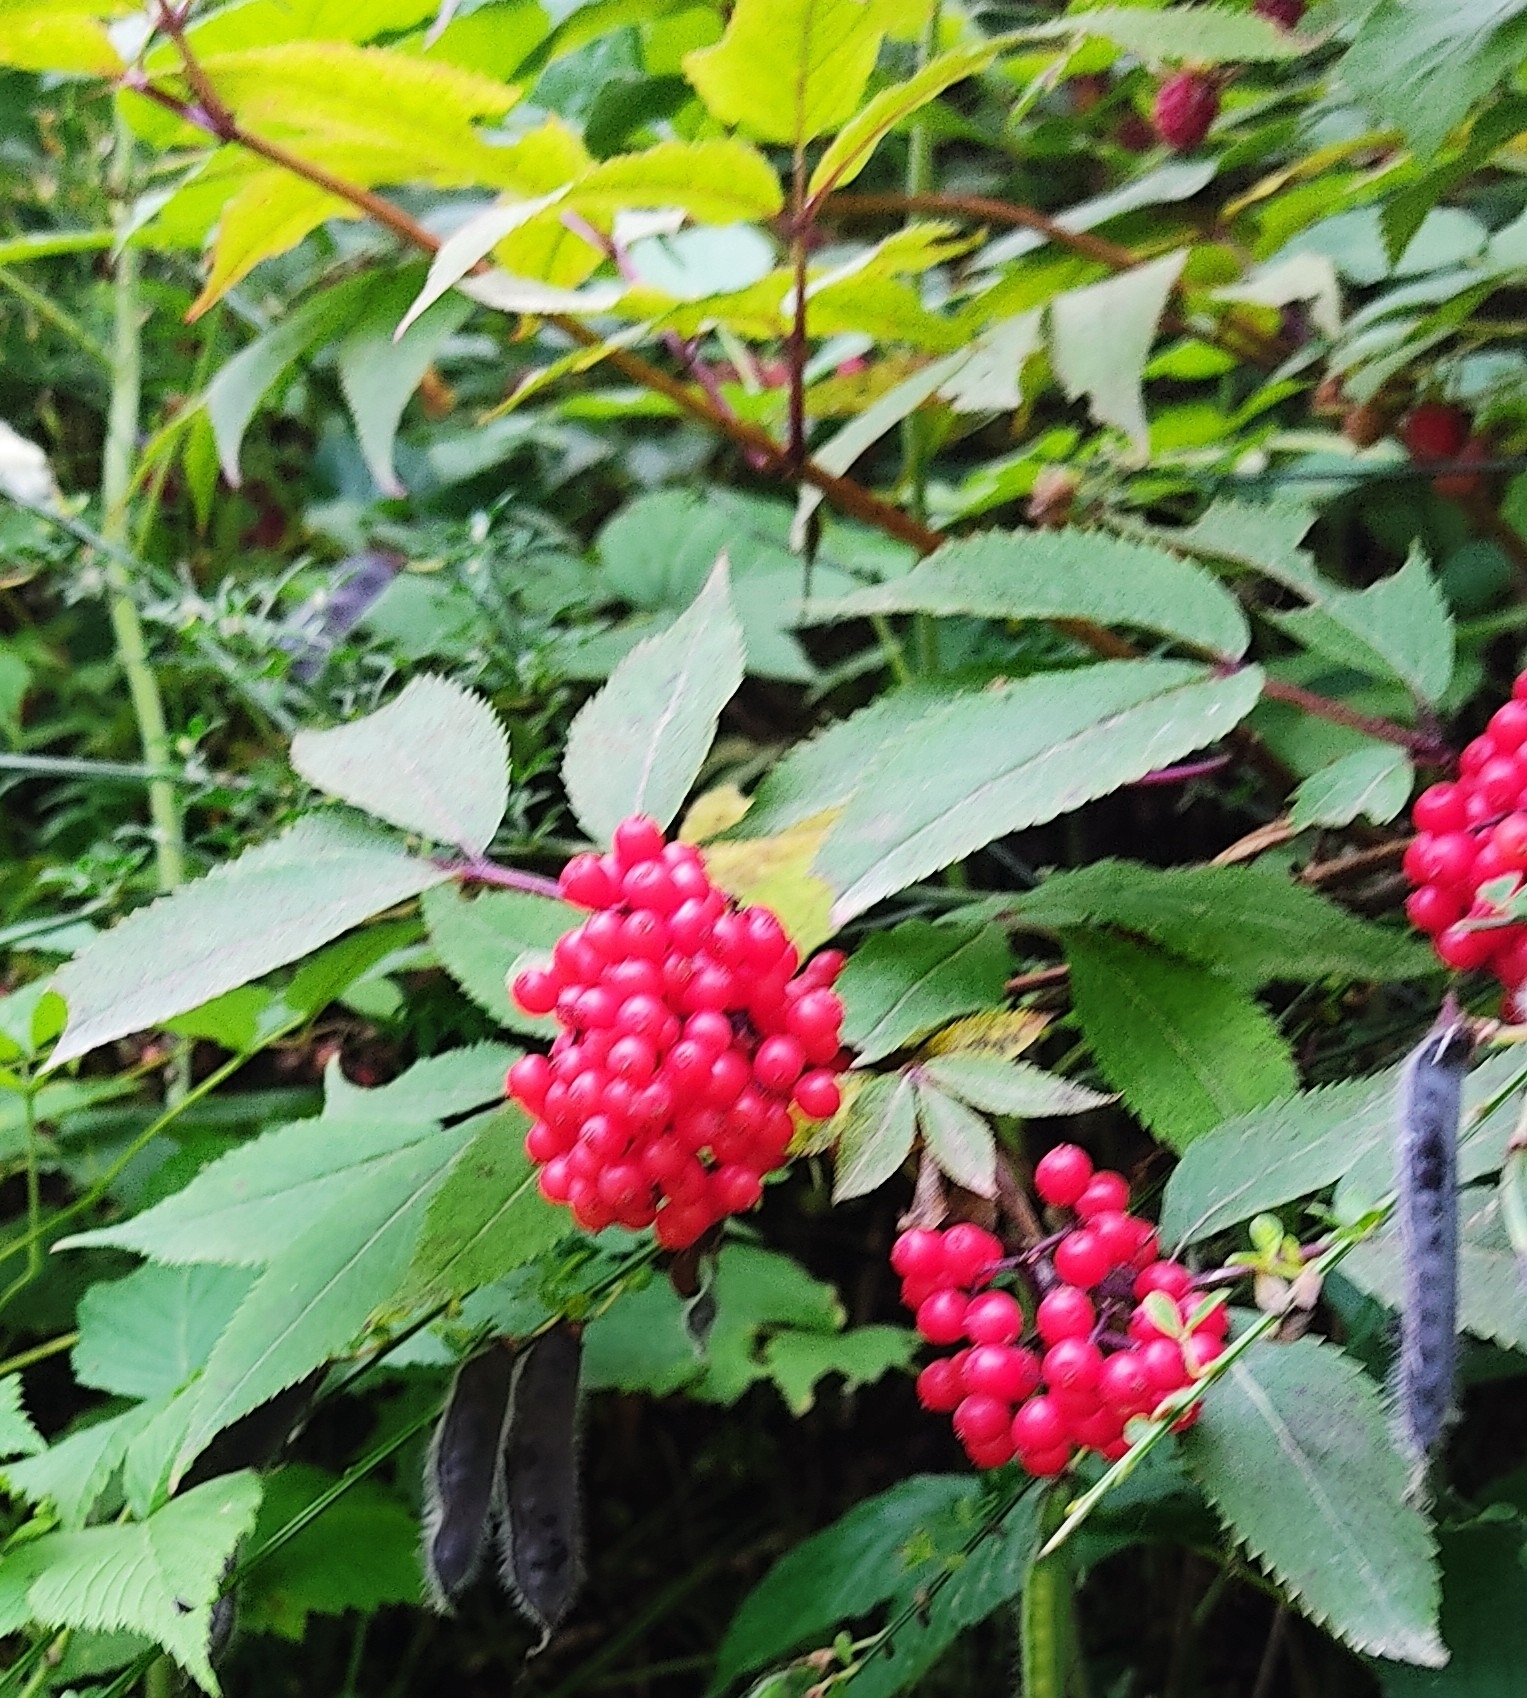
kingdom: Plantae
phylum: Tracheophyta
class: Magnoliopsida
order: Dipsacales
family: Viburnaceae
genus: Sambucus
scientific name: Sambucus racemosa
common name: Red-berried elder
